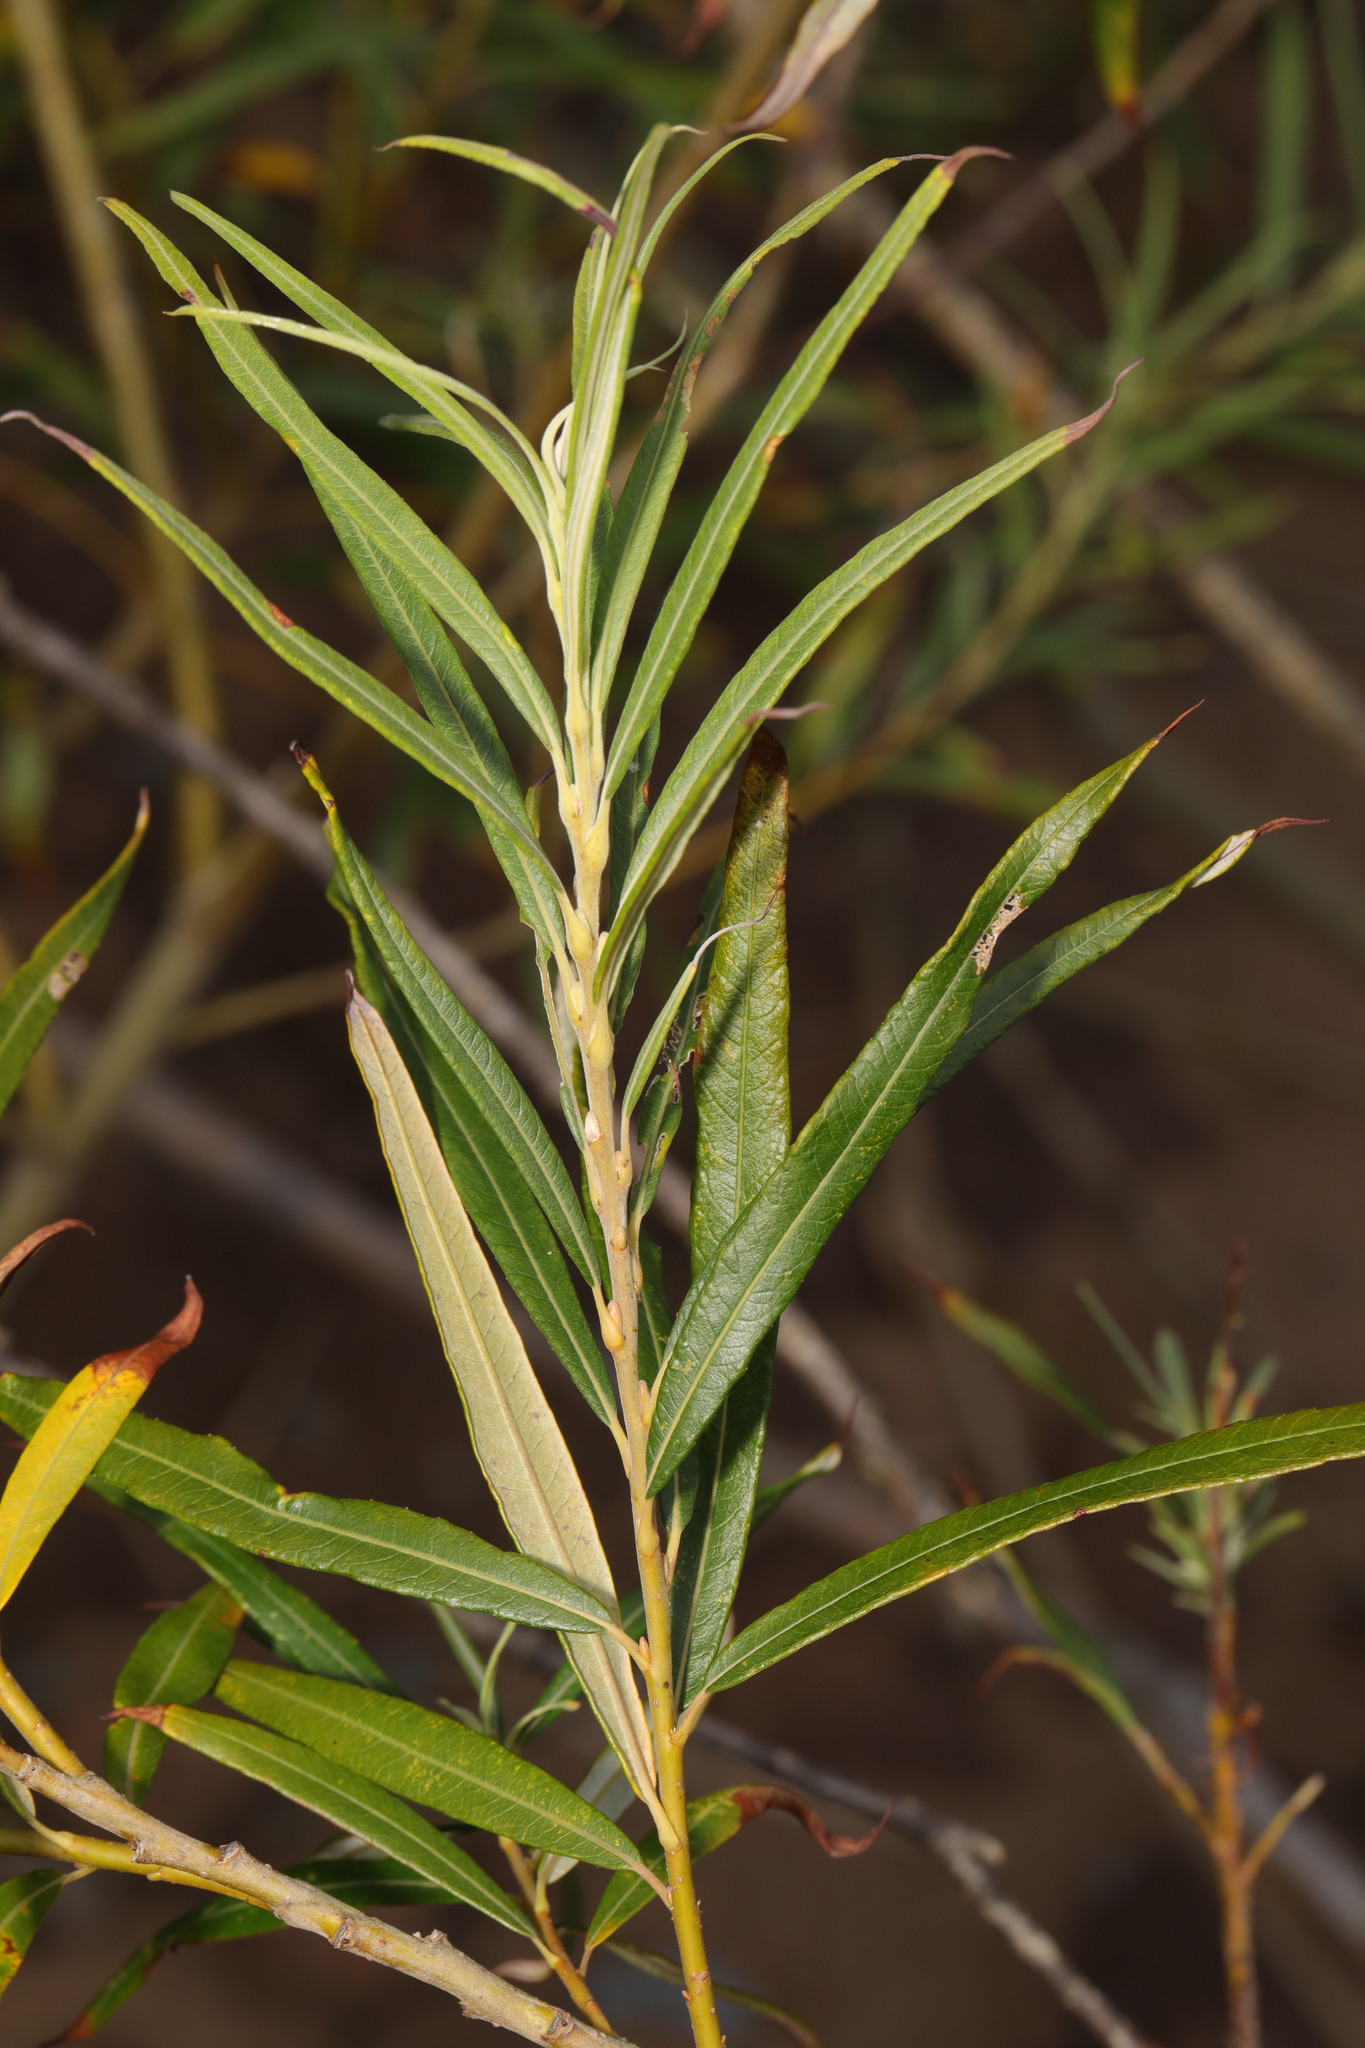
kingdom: Plantae
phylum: Tracheophyta
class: Magnoliopsida
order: Malpighiales
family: Salicaceae
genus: Salix
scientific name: Salix viminalis
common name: Osier
